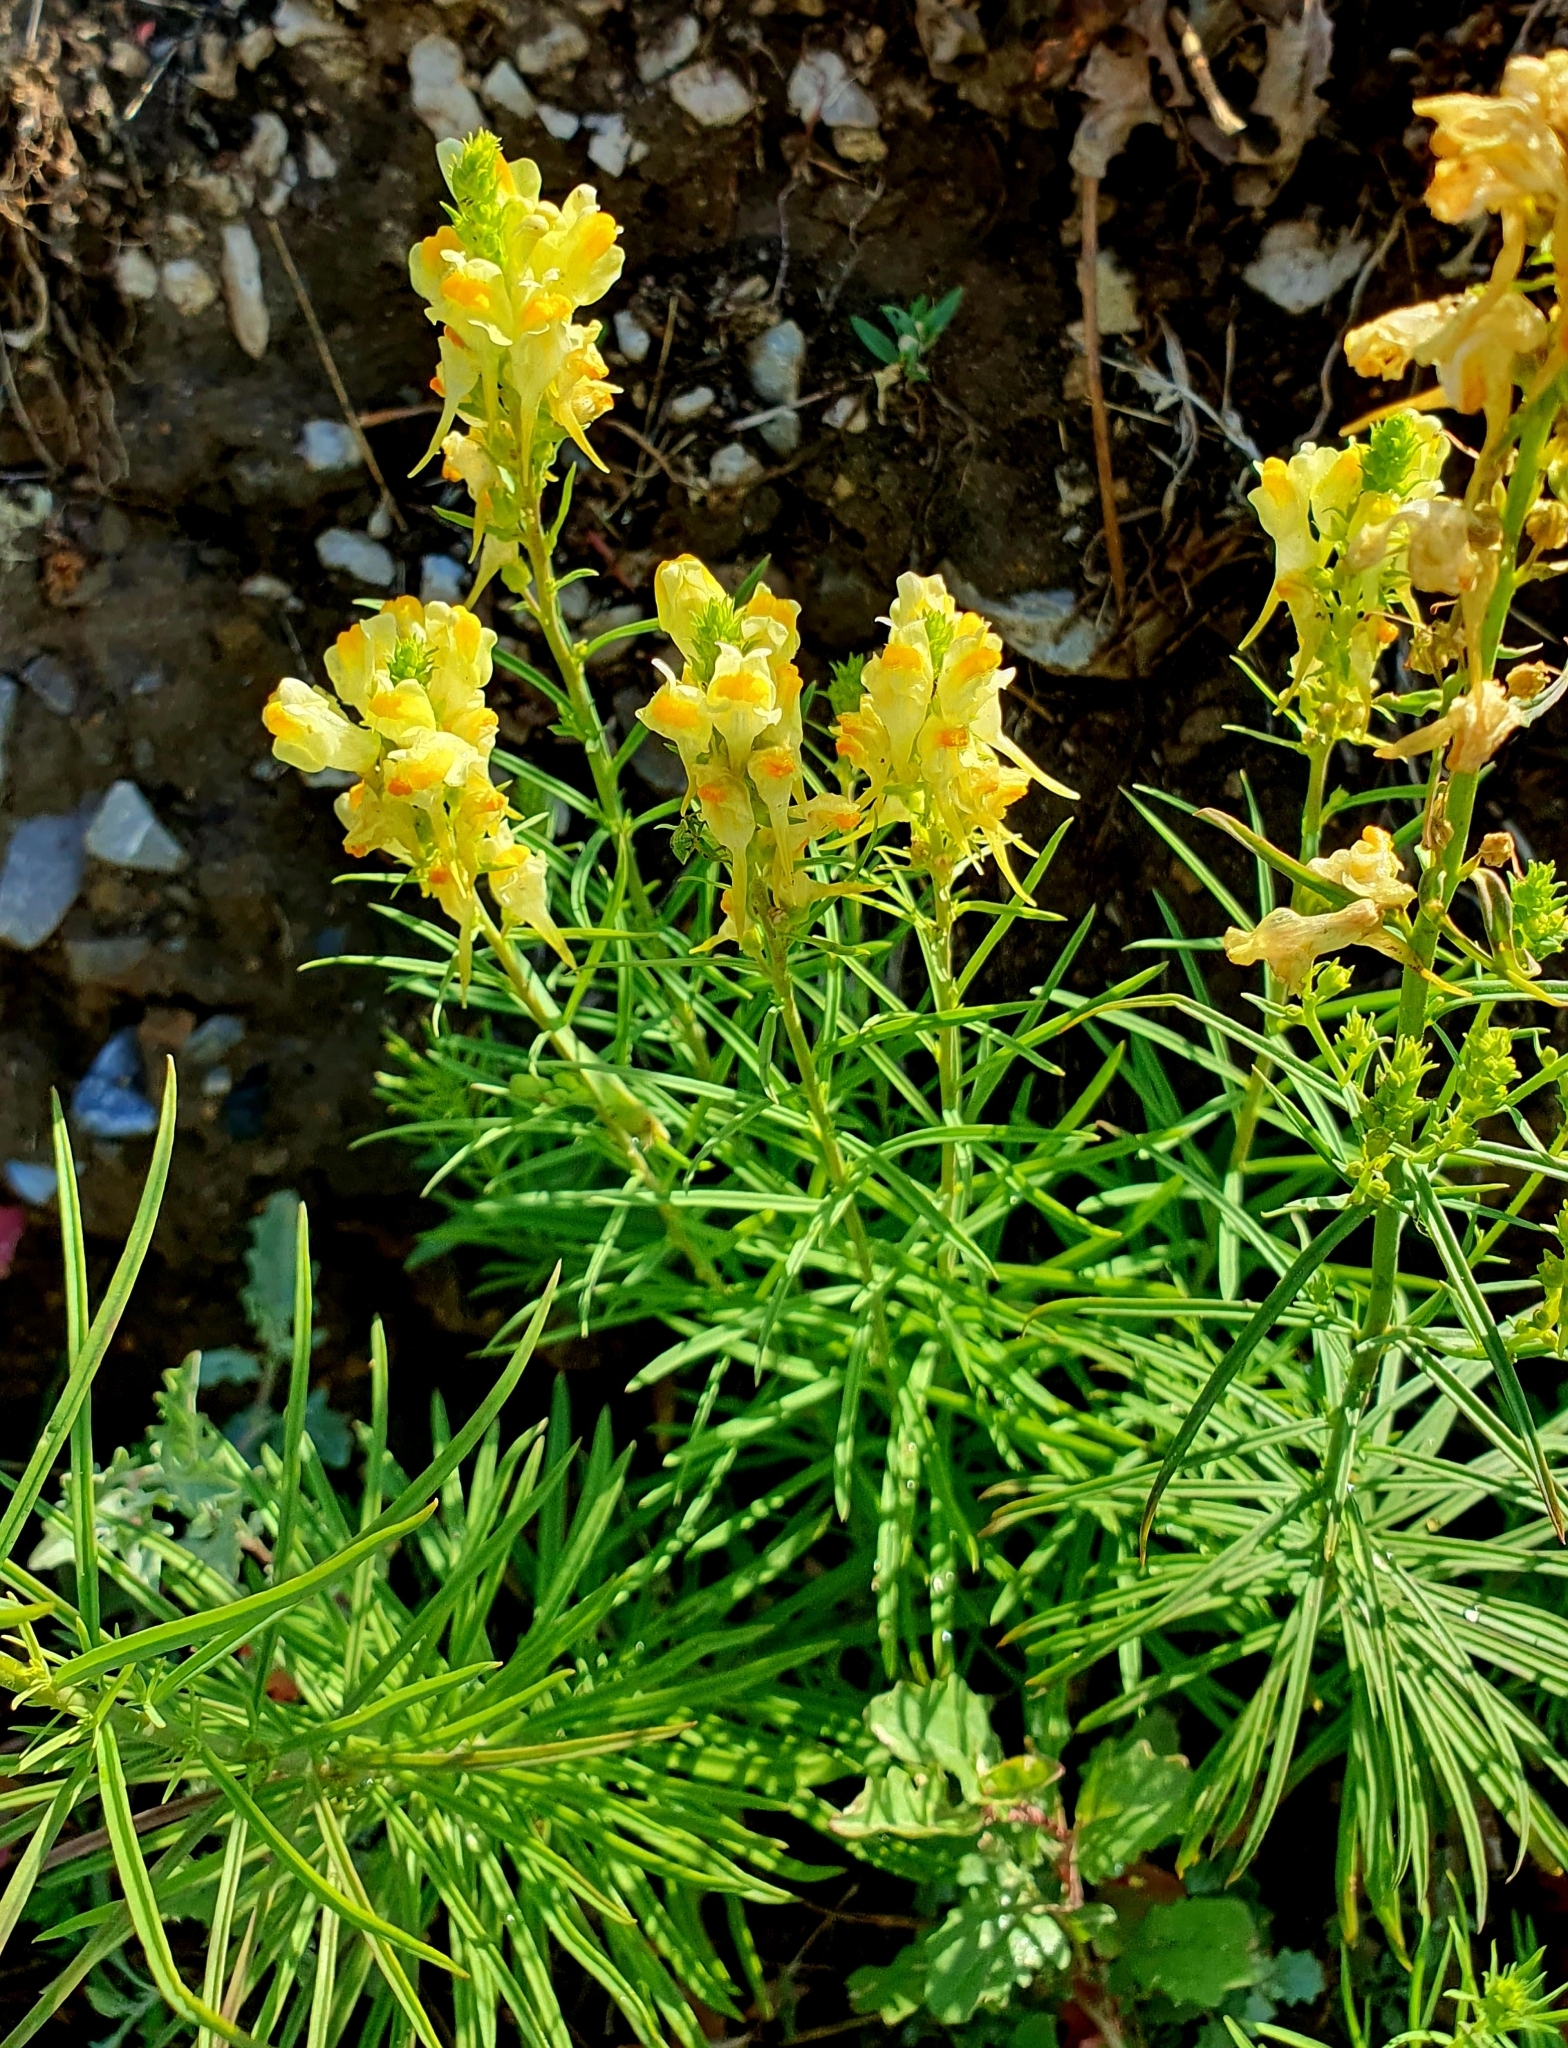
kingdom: Plantae
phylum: Tracheophyta
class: Magnoliopsida
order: Lamiales
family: Plantaginaceae
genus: Linaria
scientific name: Linaria vulgaris
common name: Butter and eggs
